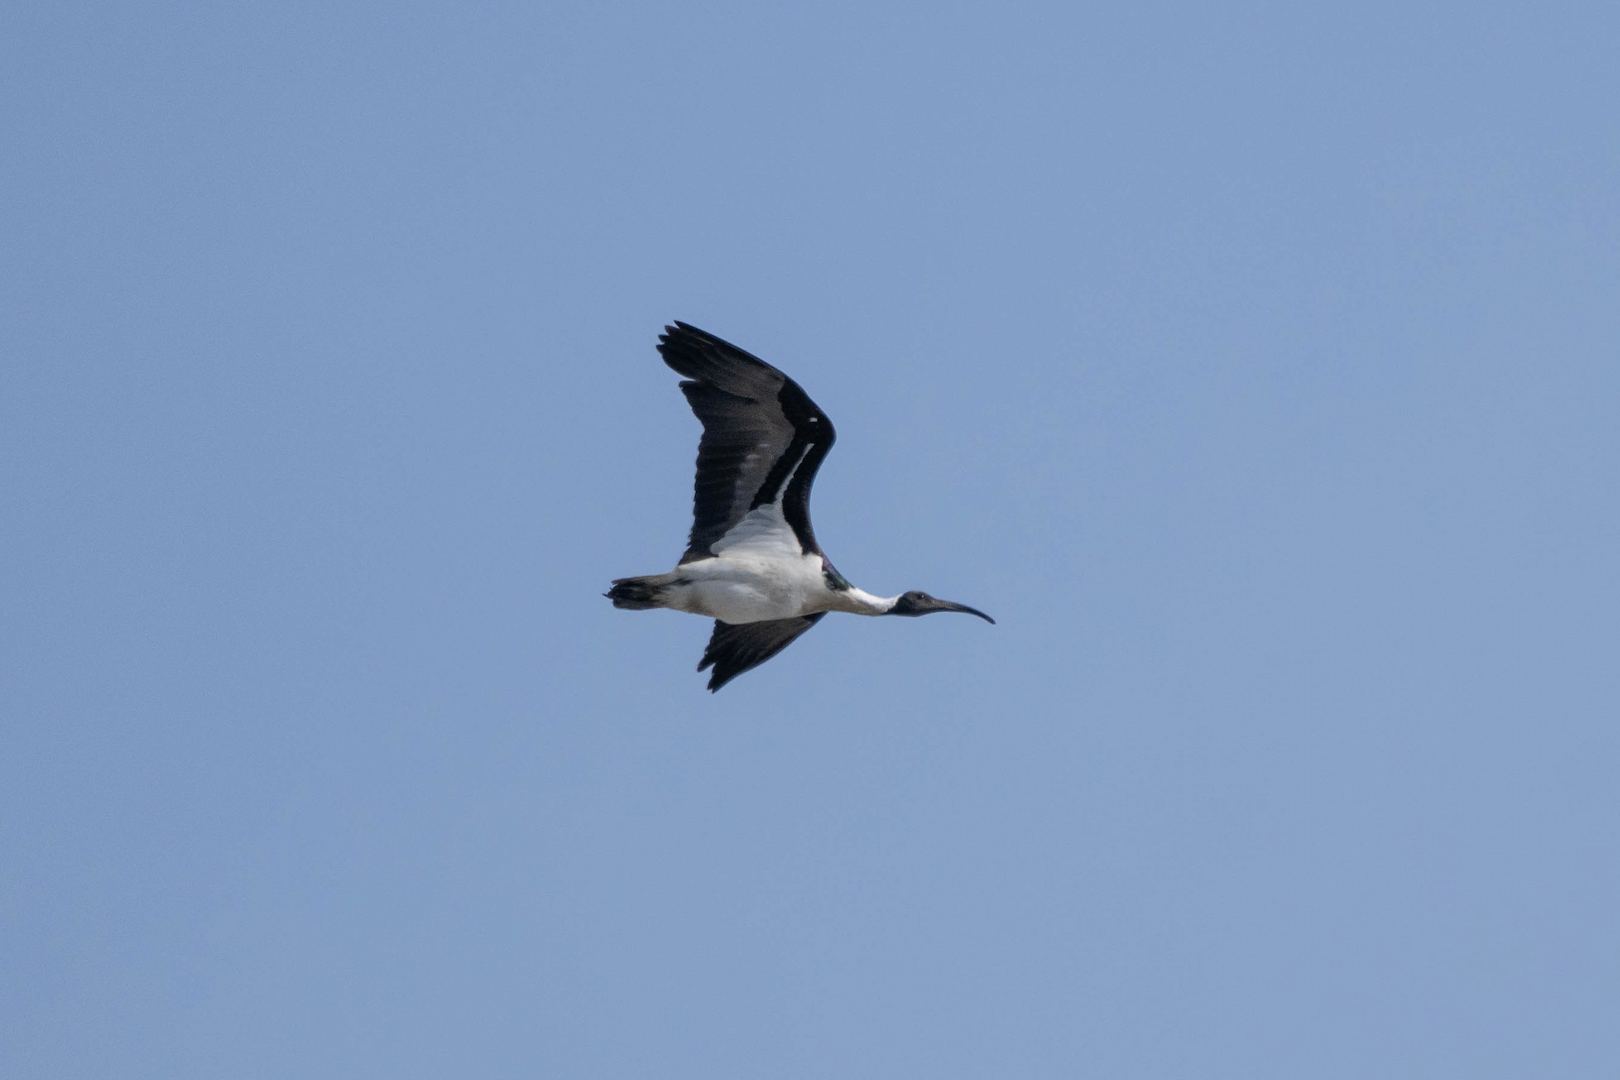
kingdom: Animalia
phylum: Chordata
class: Aves
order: Pelecaniformes
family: Threskiornithidae
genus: Threskiornis
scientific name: Threskiornis spinicollis
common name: Straw-necked ibis
